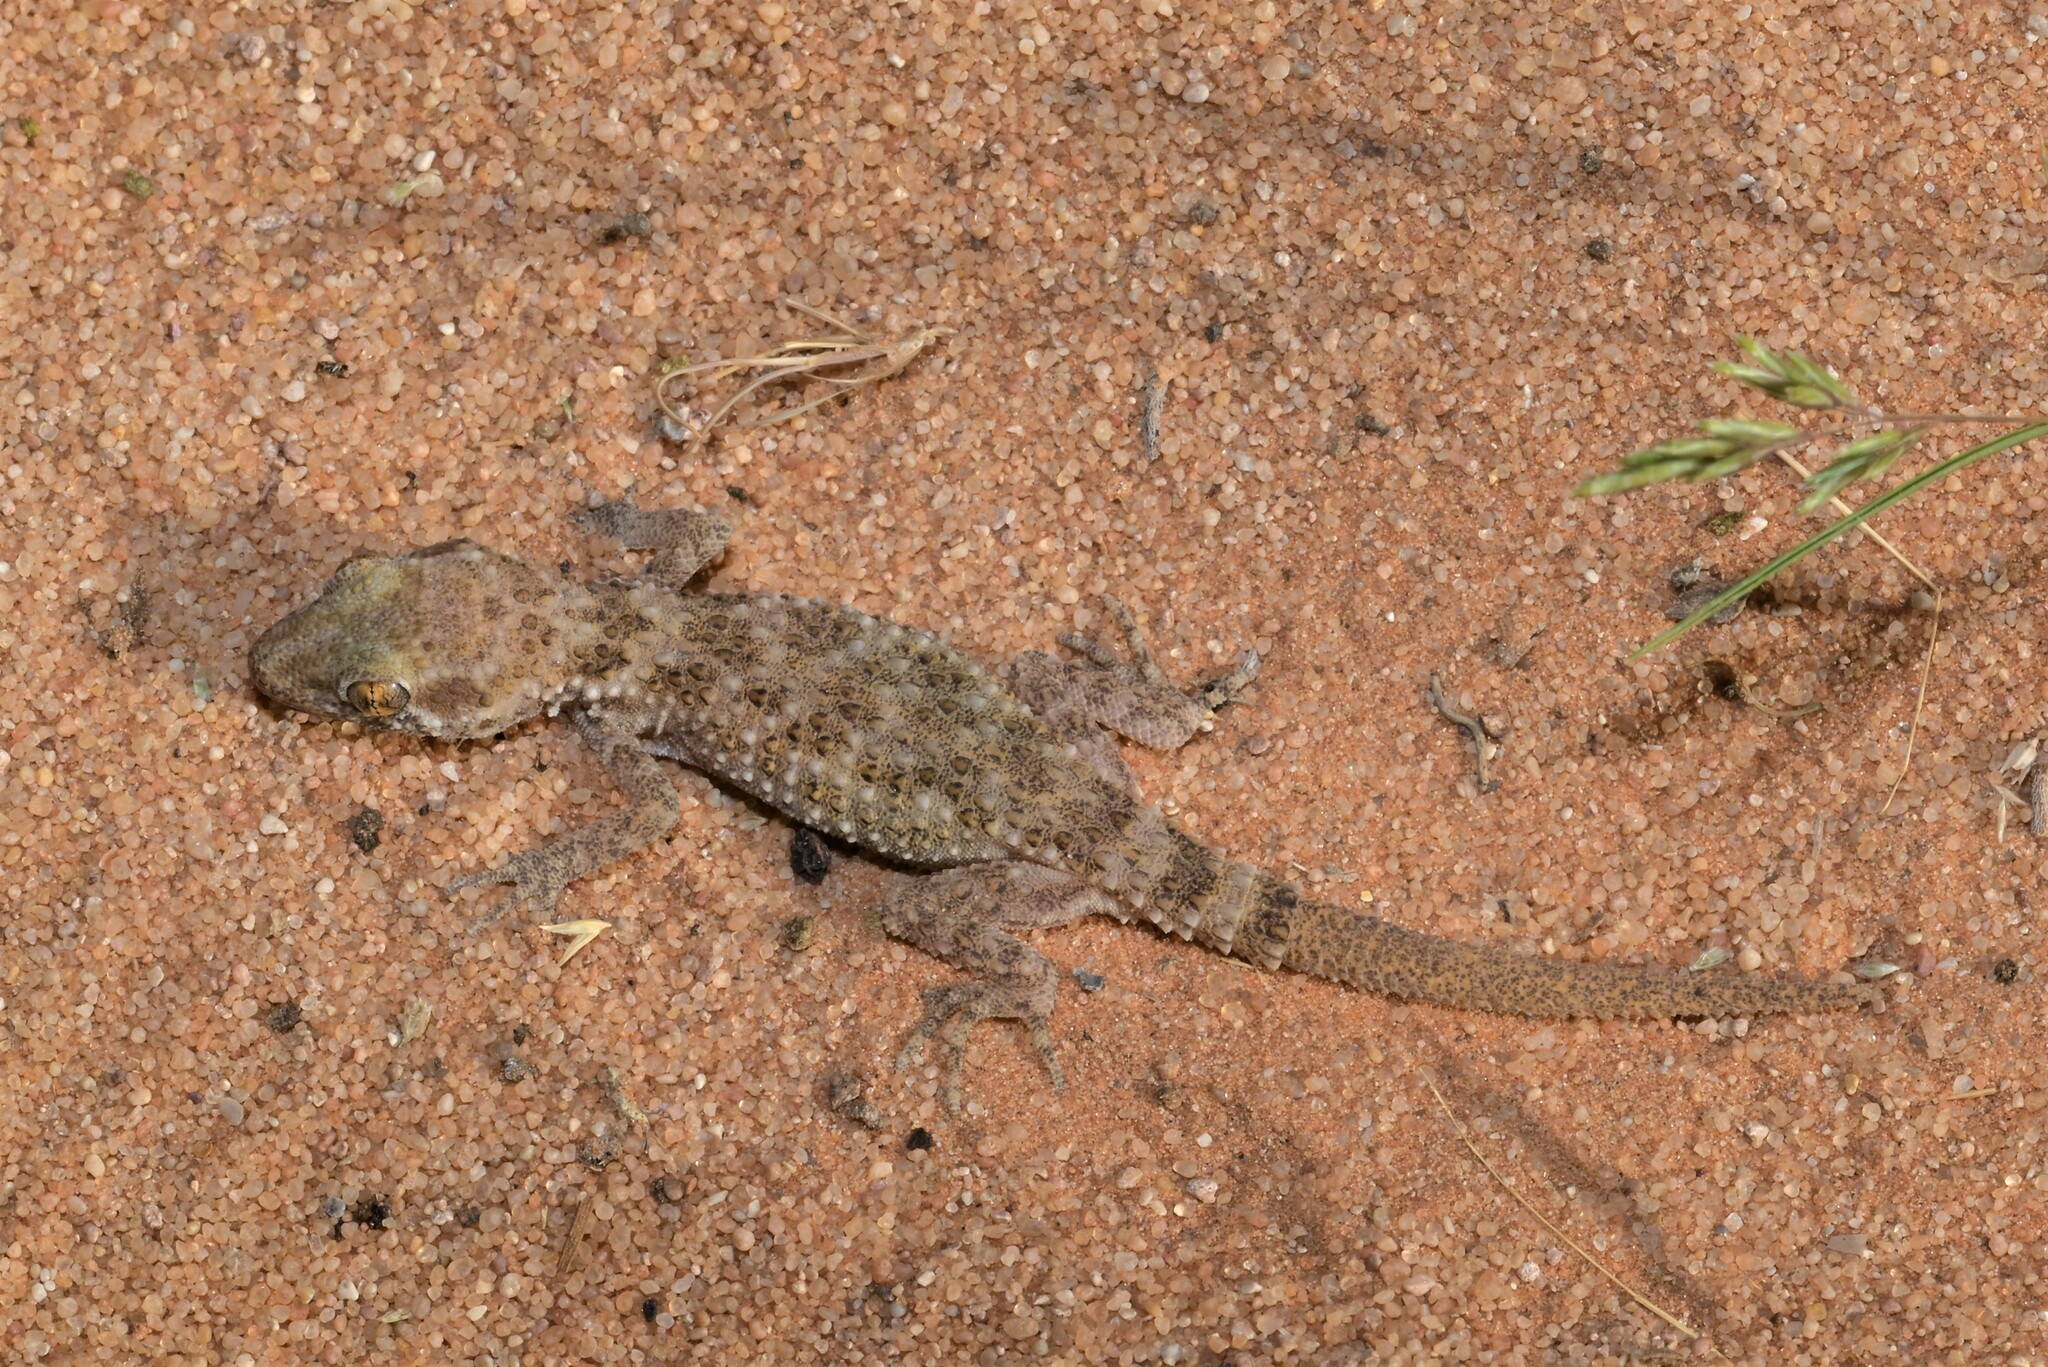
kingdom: Animalia
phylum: Chordata
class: Squamata
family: Gekkonidae
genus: Bunopus
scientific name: Bunopus tuberculatus
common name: Southern tuberculated gecko
